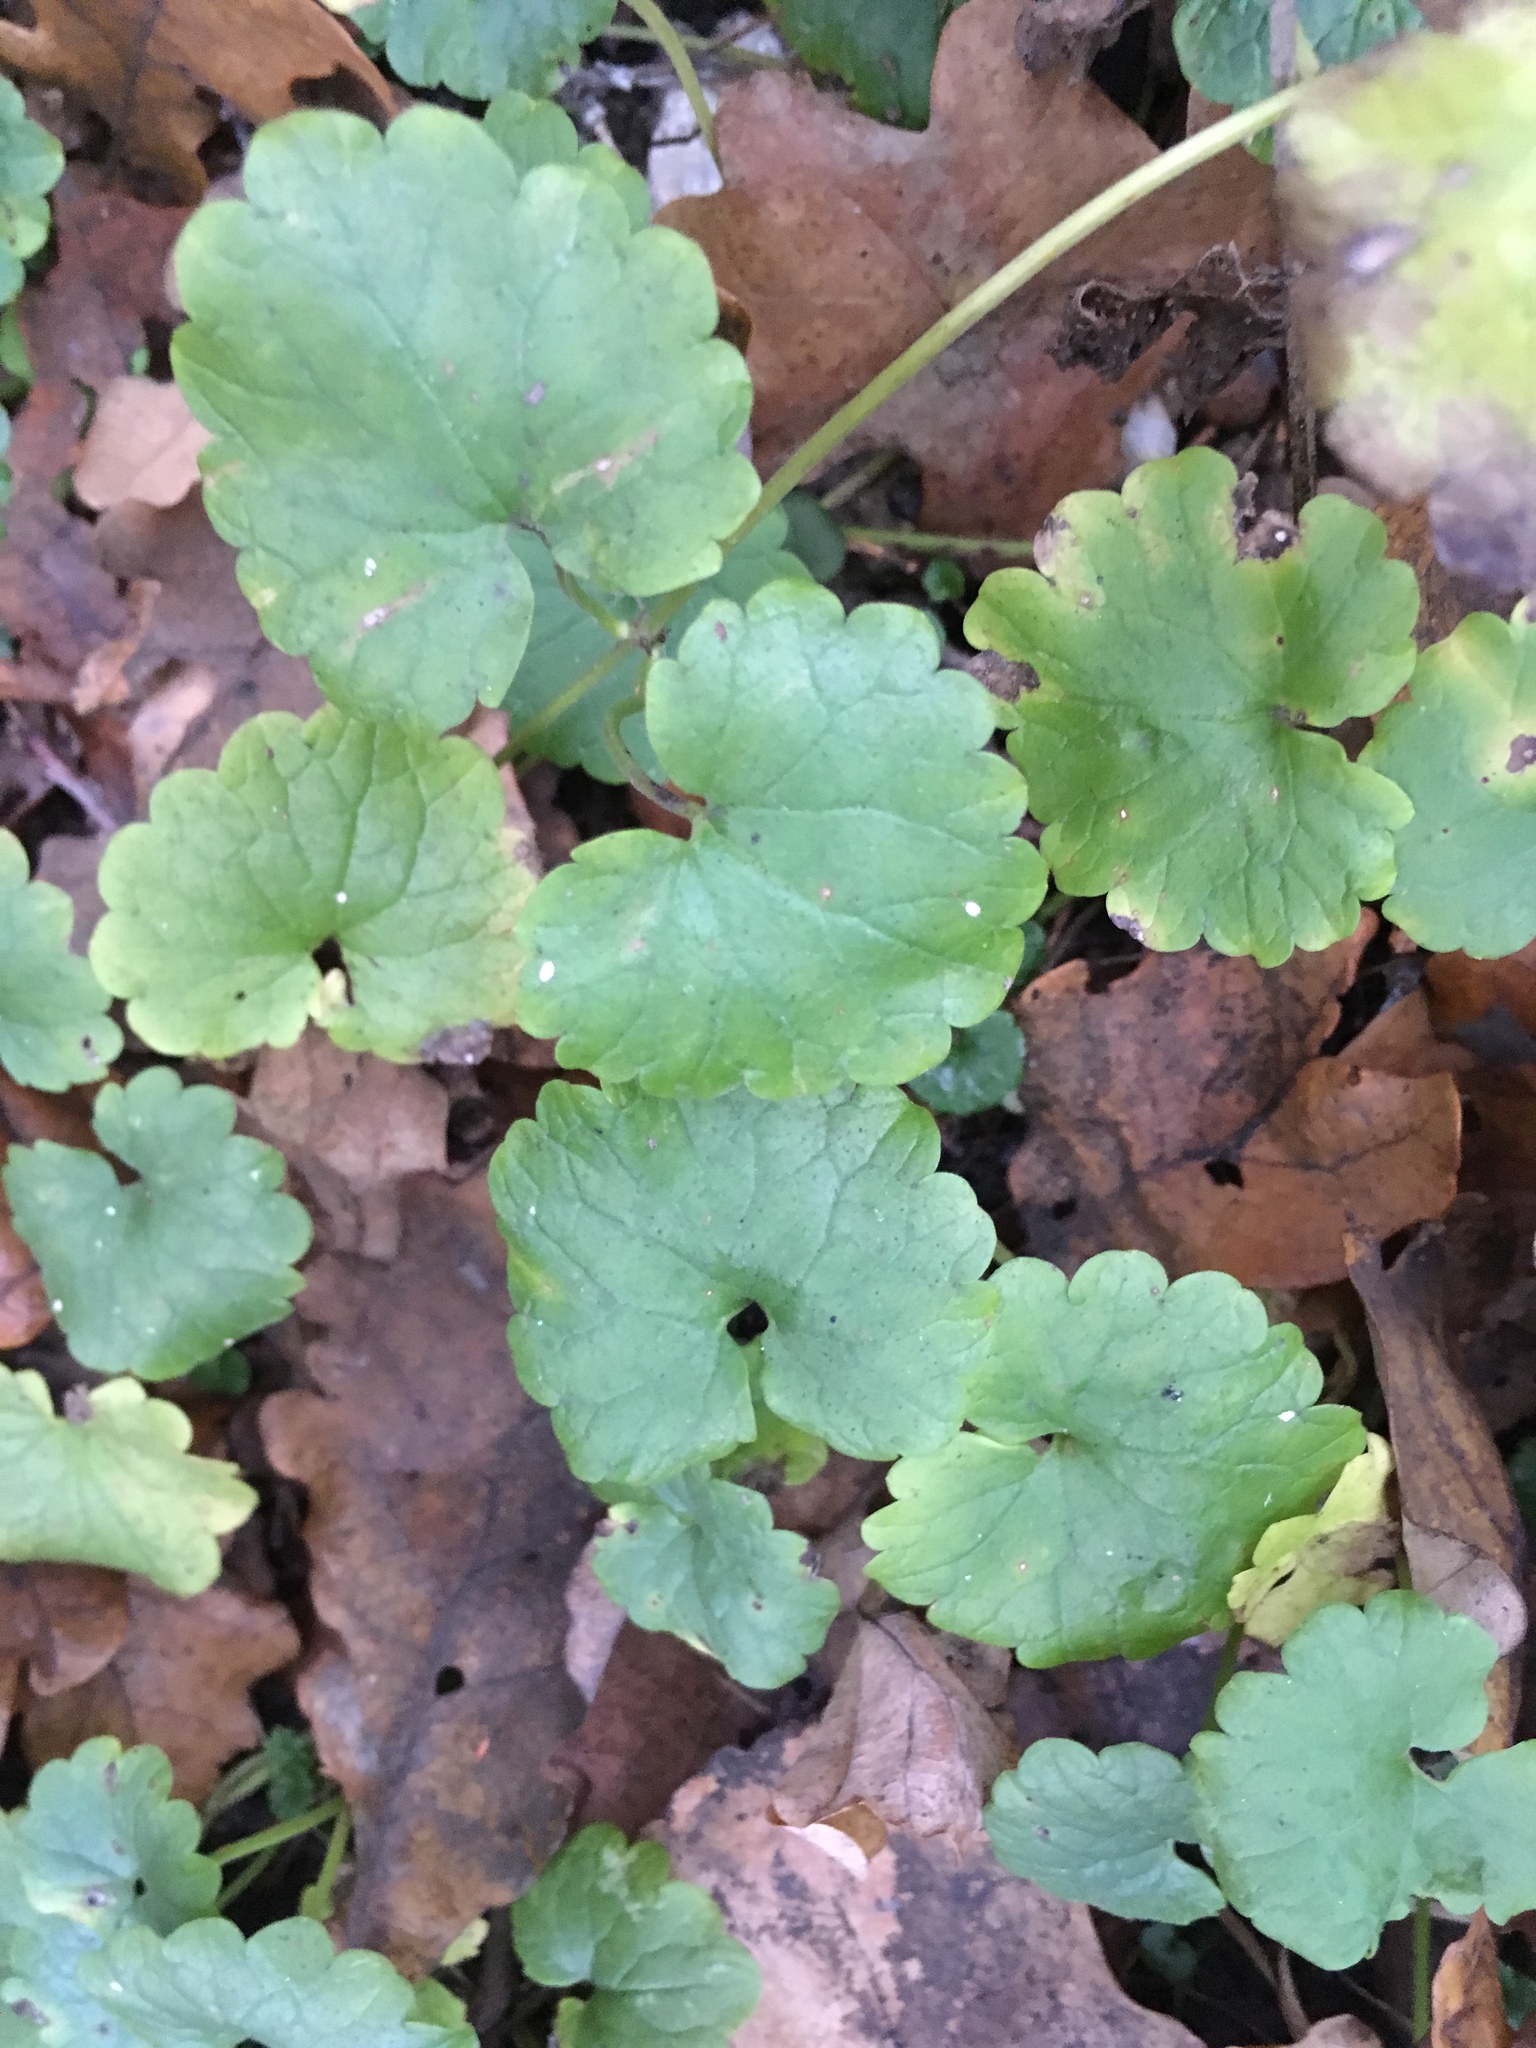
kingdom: Plantae
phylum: Tracheophyta
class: Magnoliopsida
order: Lamiales
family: Lamiaceae
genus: Glechoma
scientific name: Glechoma hederacea
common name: Ground ivy
